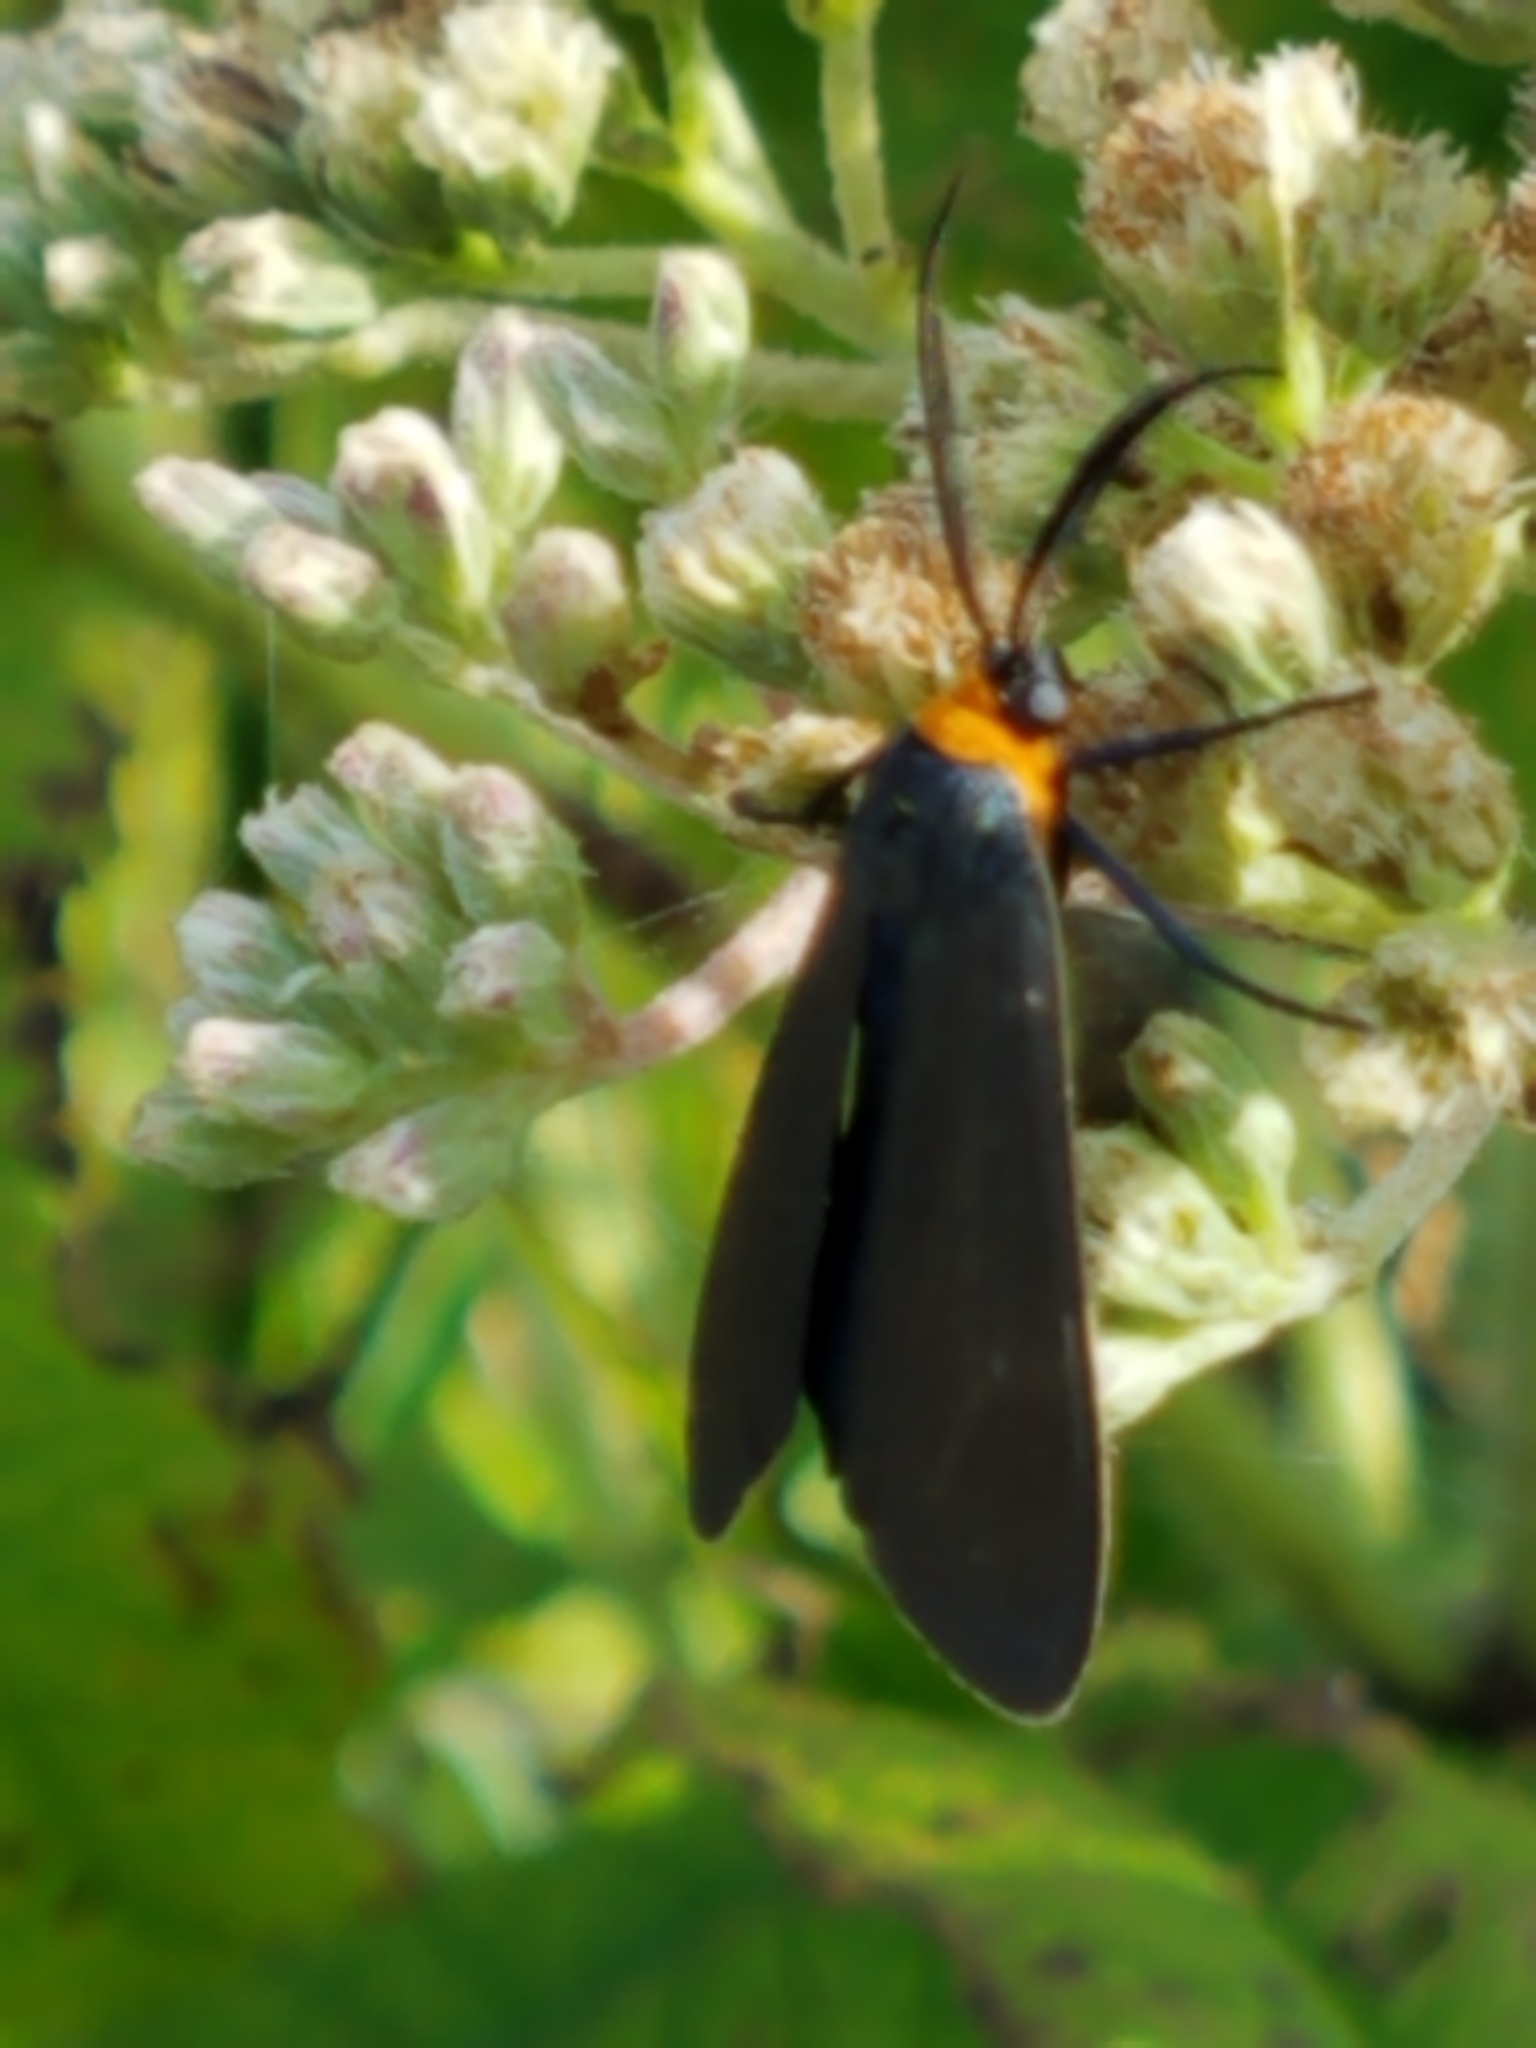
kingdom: Animalia
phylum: Arthropoda
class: Insecta
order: Lepidoptera
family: Erebidae
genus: Cisseps
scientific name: Cisseps fulvicollis
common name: Yellow-collared scape moth
